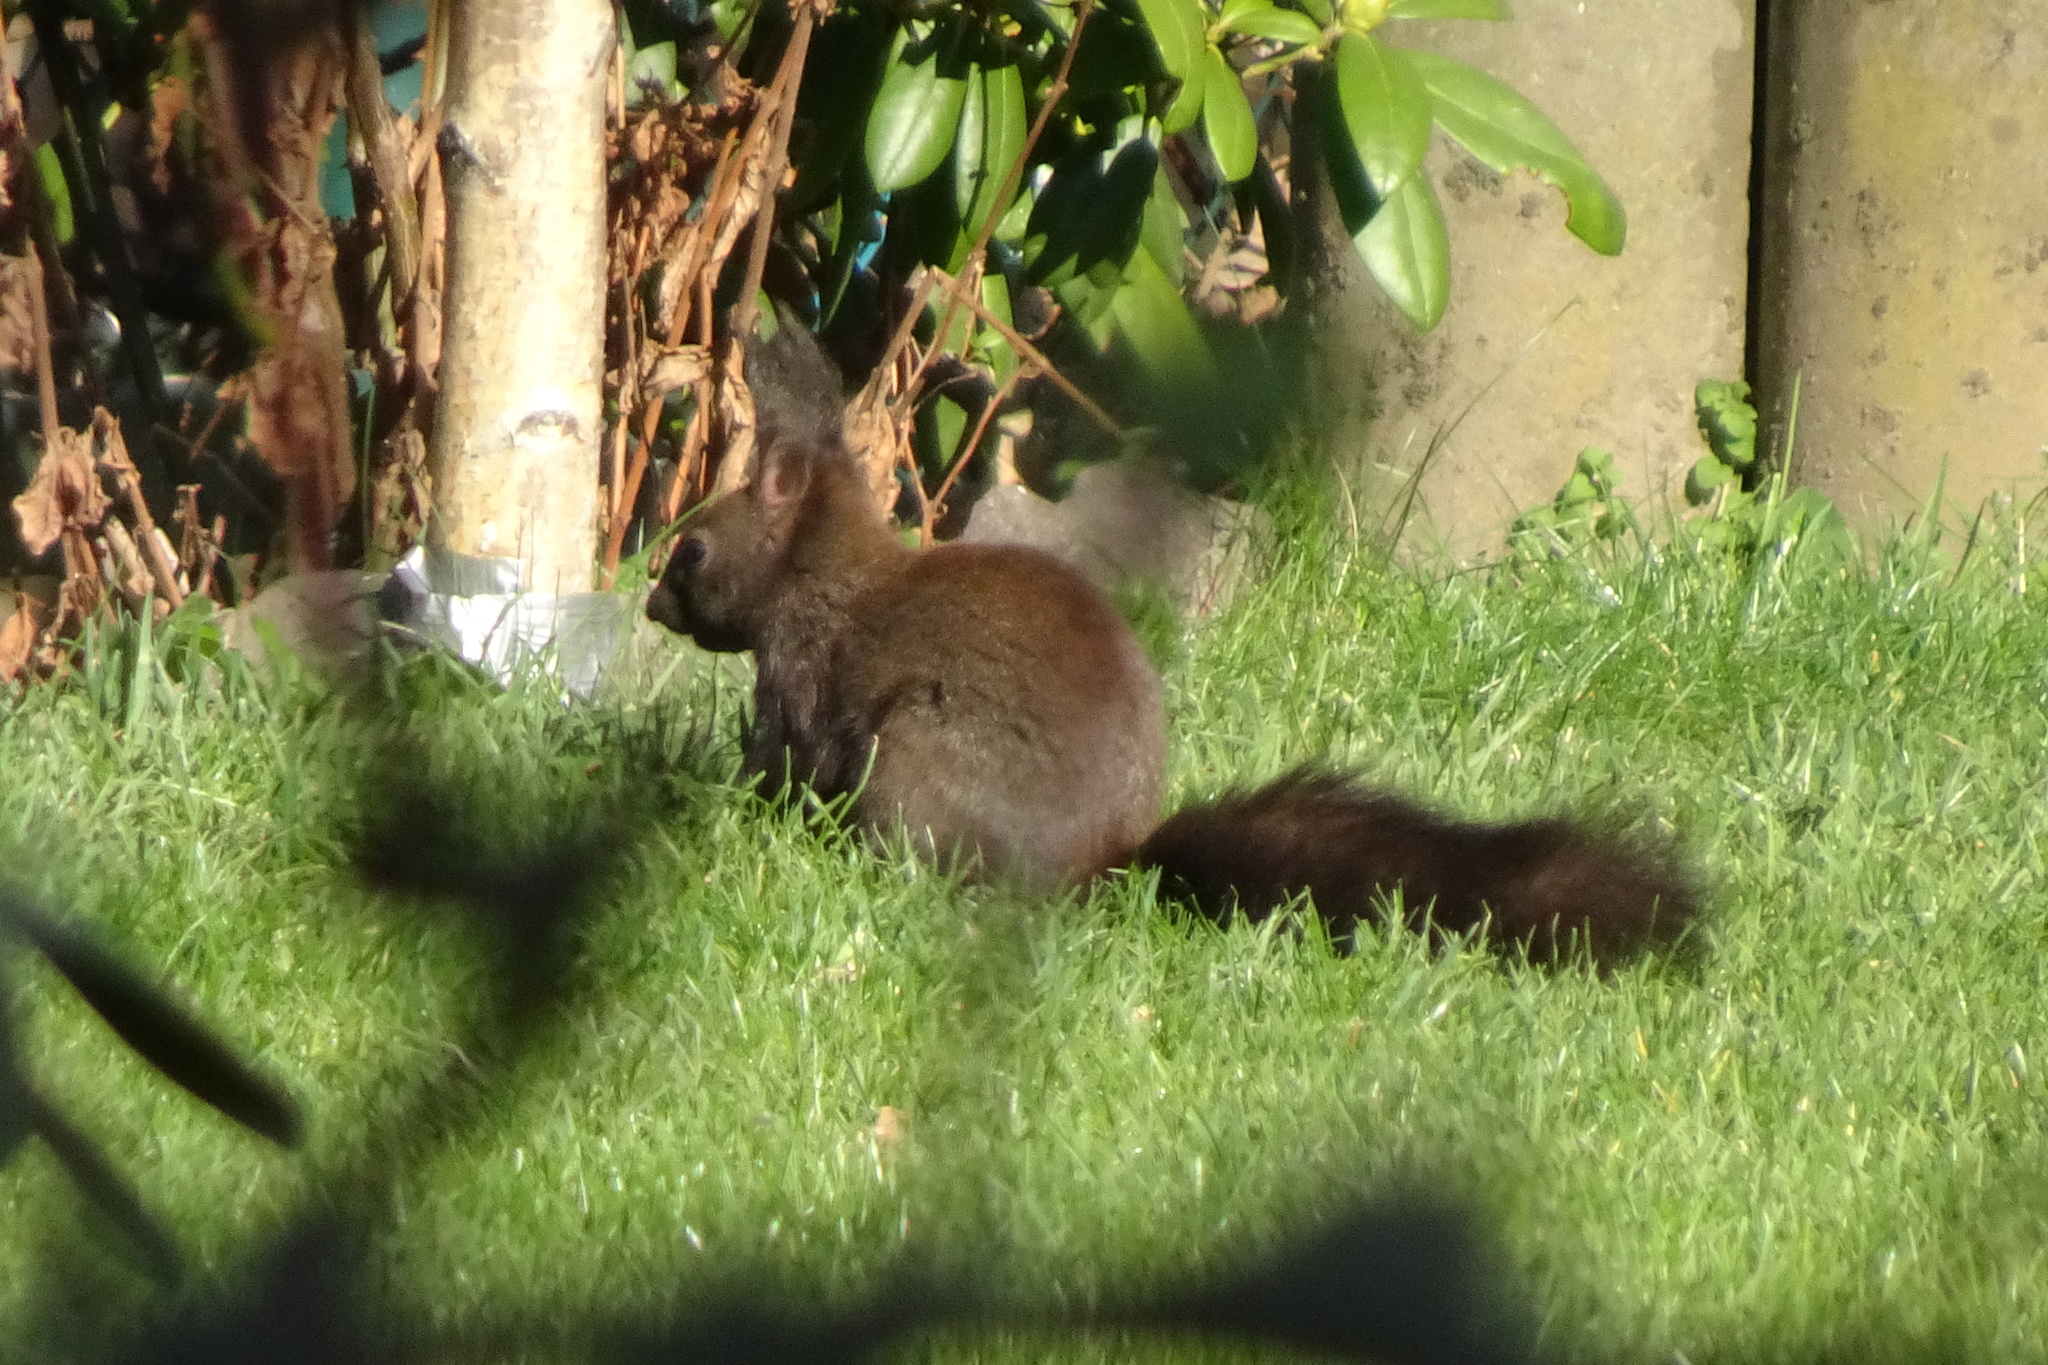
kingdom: Animalia
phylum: Chordata
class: Mammalia
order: Rodentia
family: Sciuridae
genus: Sciurus
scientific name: Sciurus vulgaris
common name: Eurasian red squirrel
